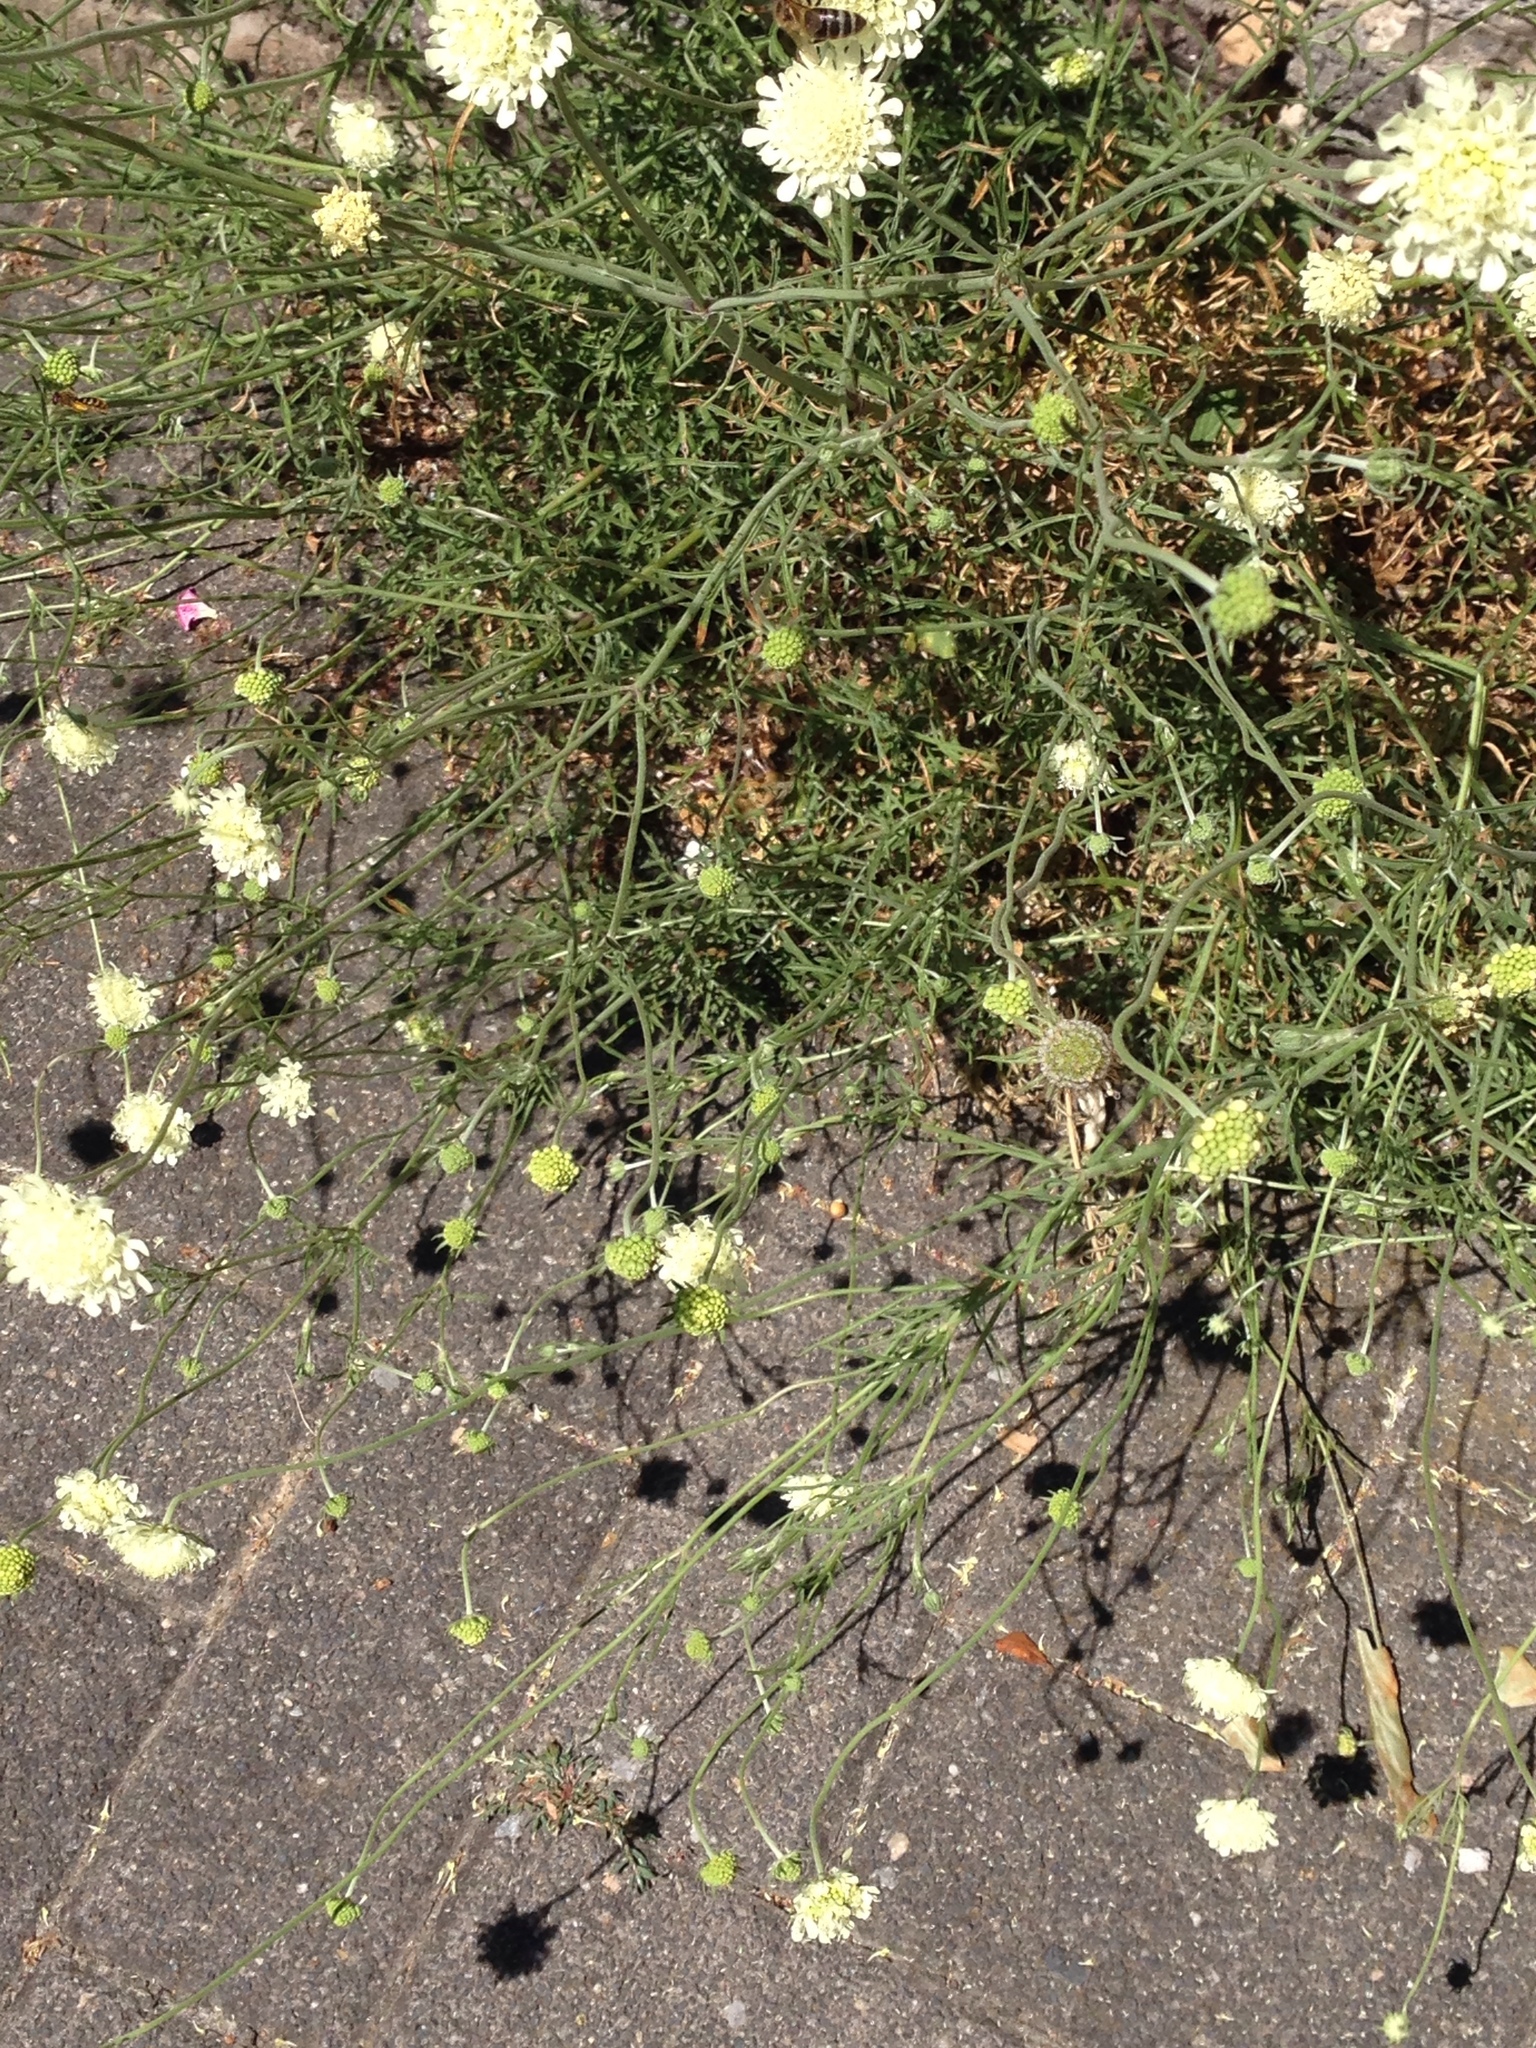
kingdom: Plantae
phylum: Tracheophyta
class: Magnoliopsida
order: Dipsacales
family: Caprifoliaceae
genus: Scabiosa
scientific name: Scabiosa ochroleuca
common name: Cream pincushions
